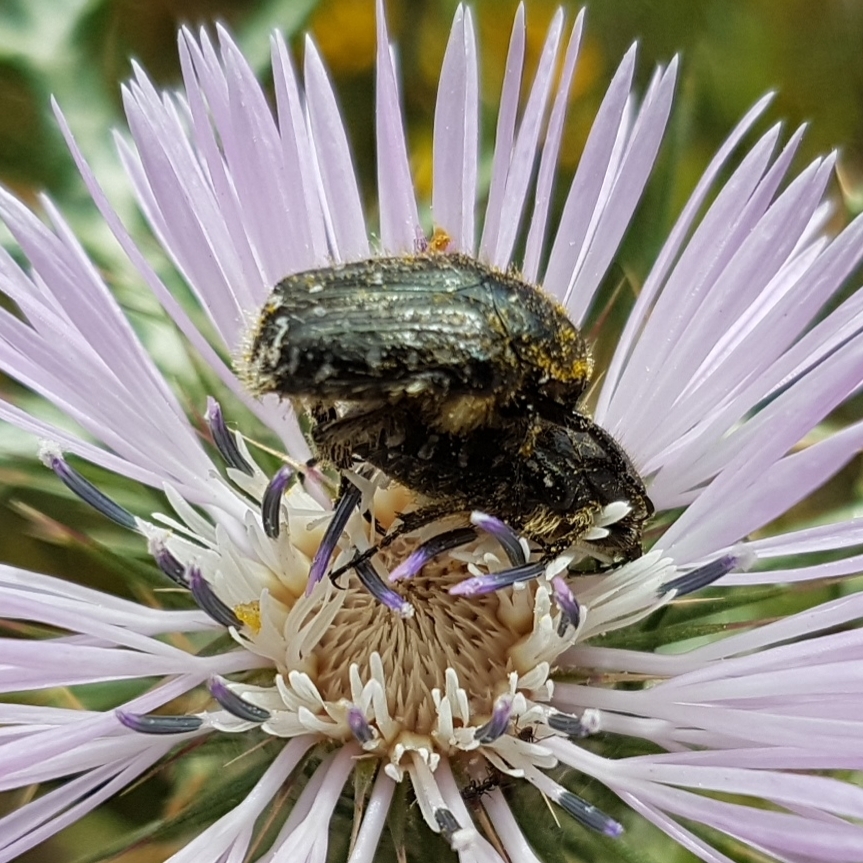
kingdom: Animalia
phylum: Arthropoda
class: Insecta
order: Coleoptera
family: Scarabaeidae
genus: Oxythyrea
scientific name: Oxythyrea funesta
